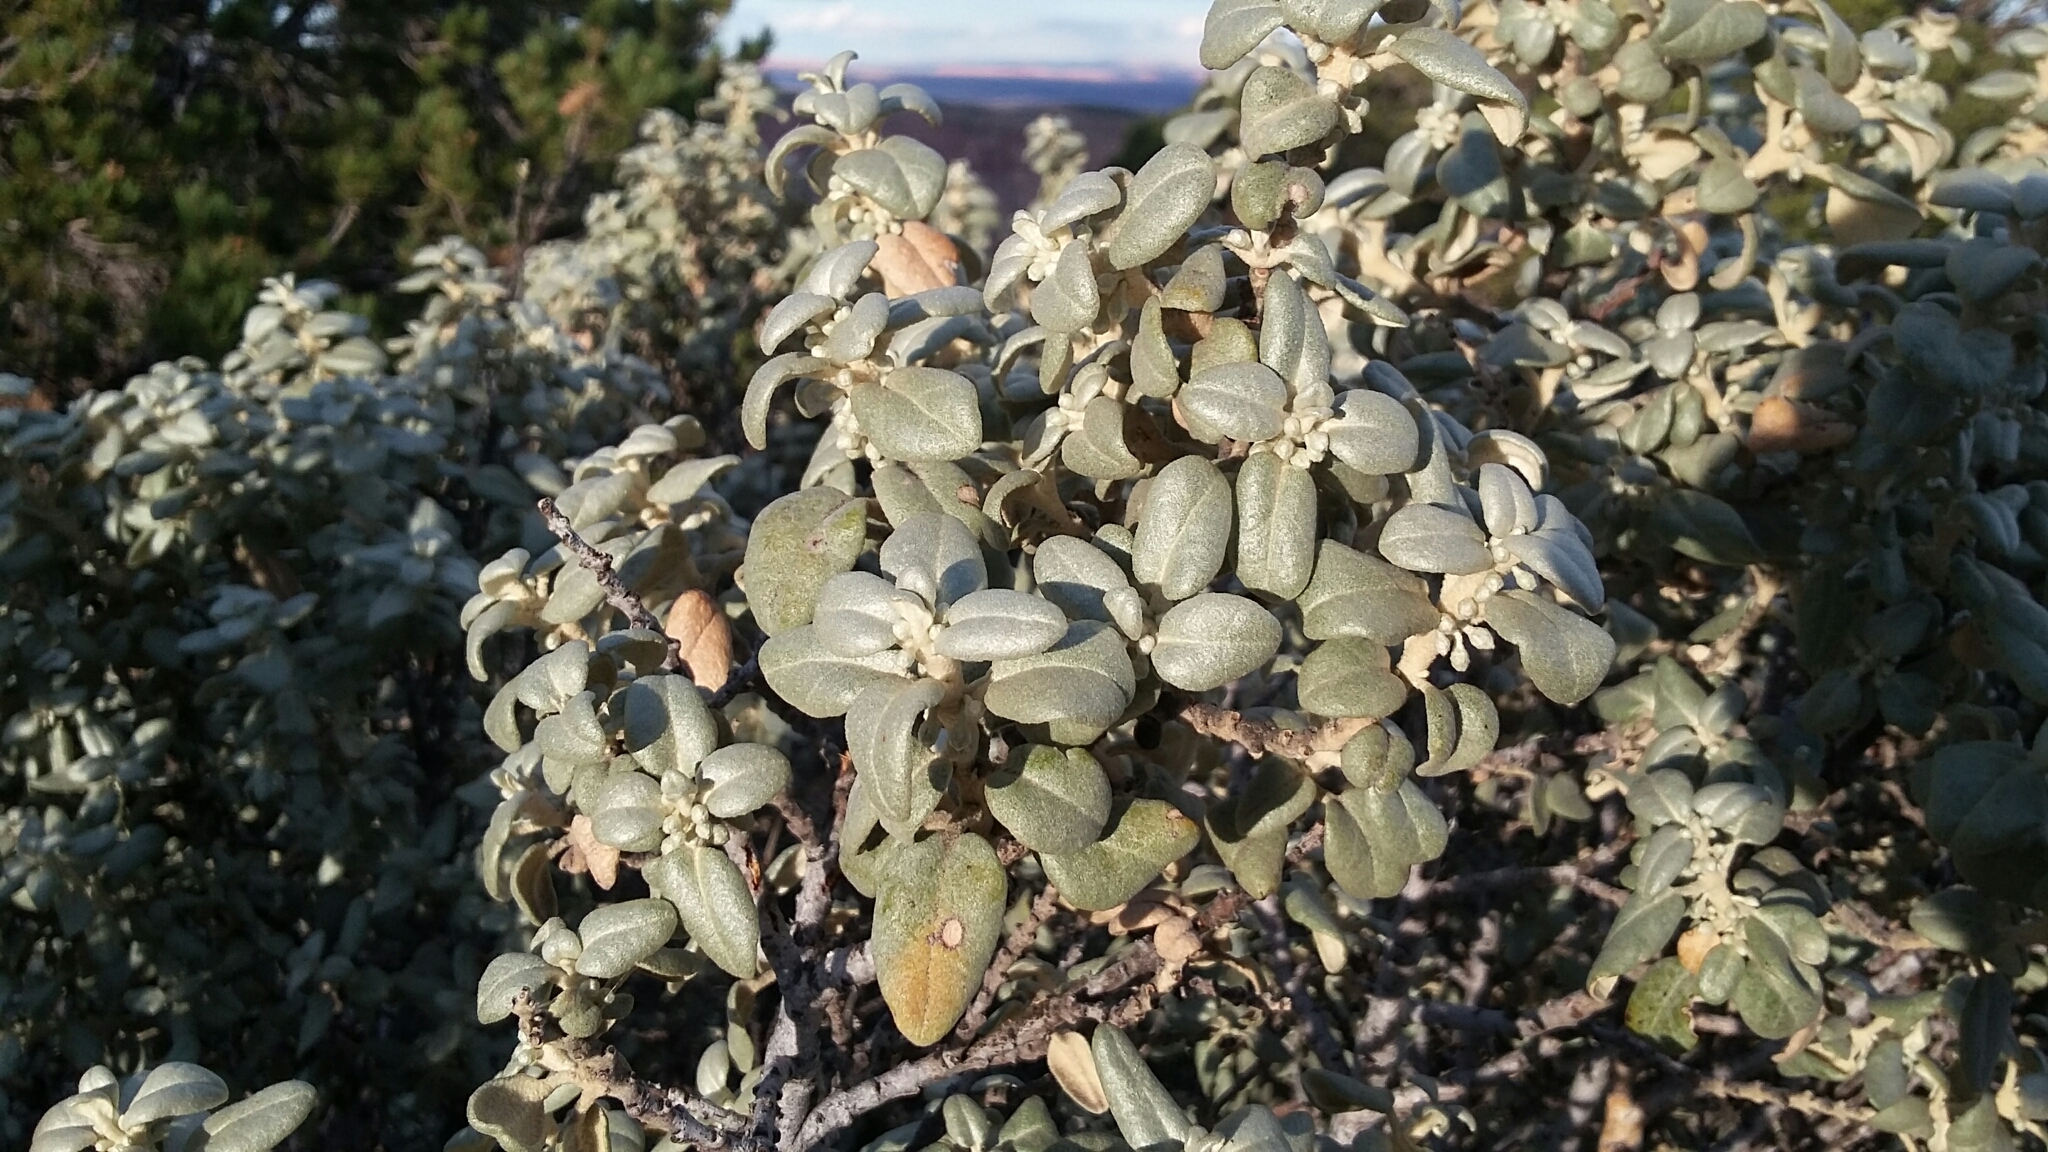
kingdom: Plantae
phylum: Tracheophyta
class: Magnoliopsida
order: Rosales
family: Elaeagnaceae
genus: Shepherdia
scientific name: Shepherdia rotundifolia
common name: Silverscale
